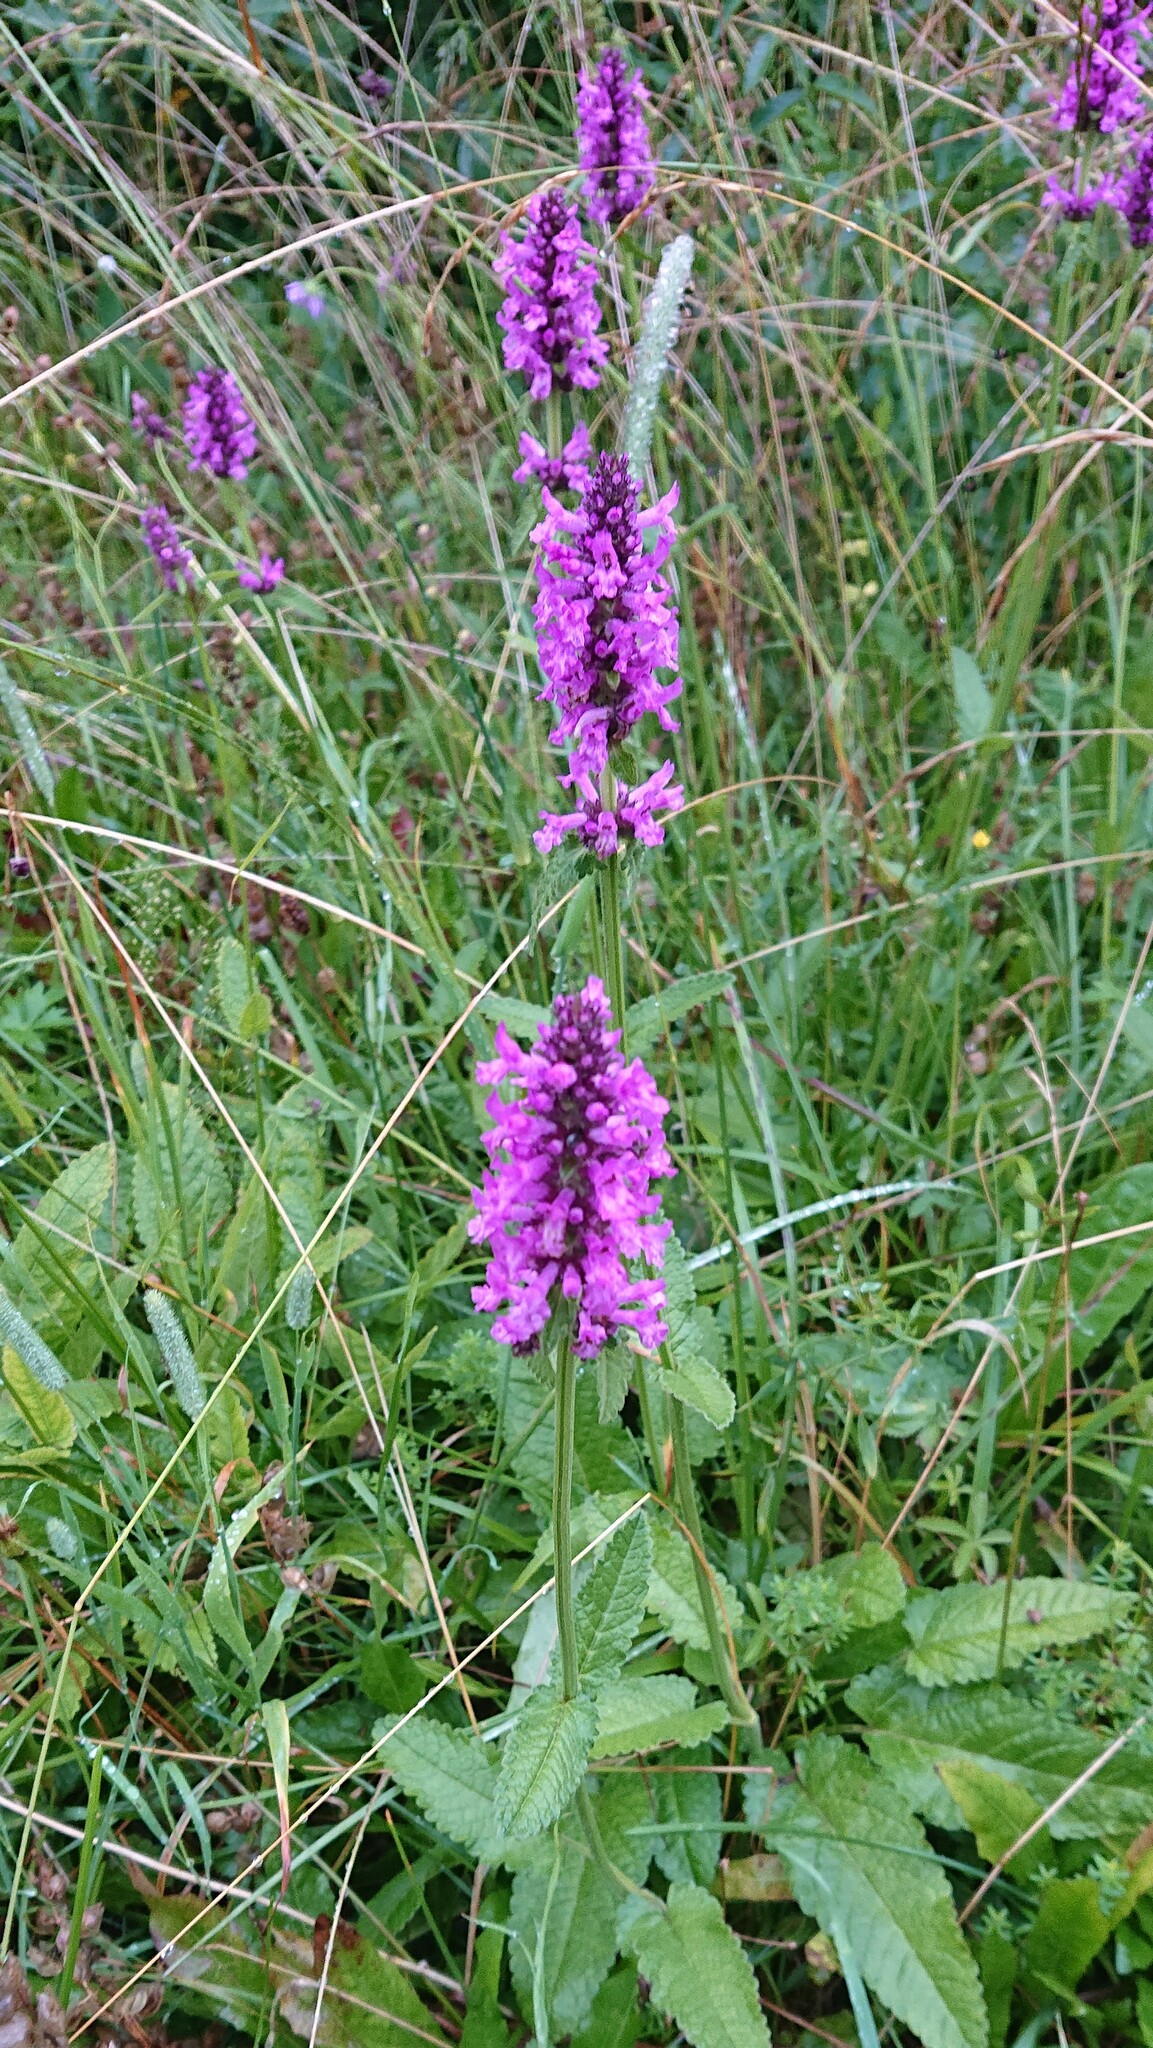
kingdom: Plantae
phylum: Tracheophyta
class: Magnoliopsida
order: Lamiales
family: Lamiaceae
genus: Betonica
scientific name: Betonica officinalis
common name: Bishop's-wort
